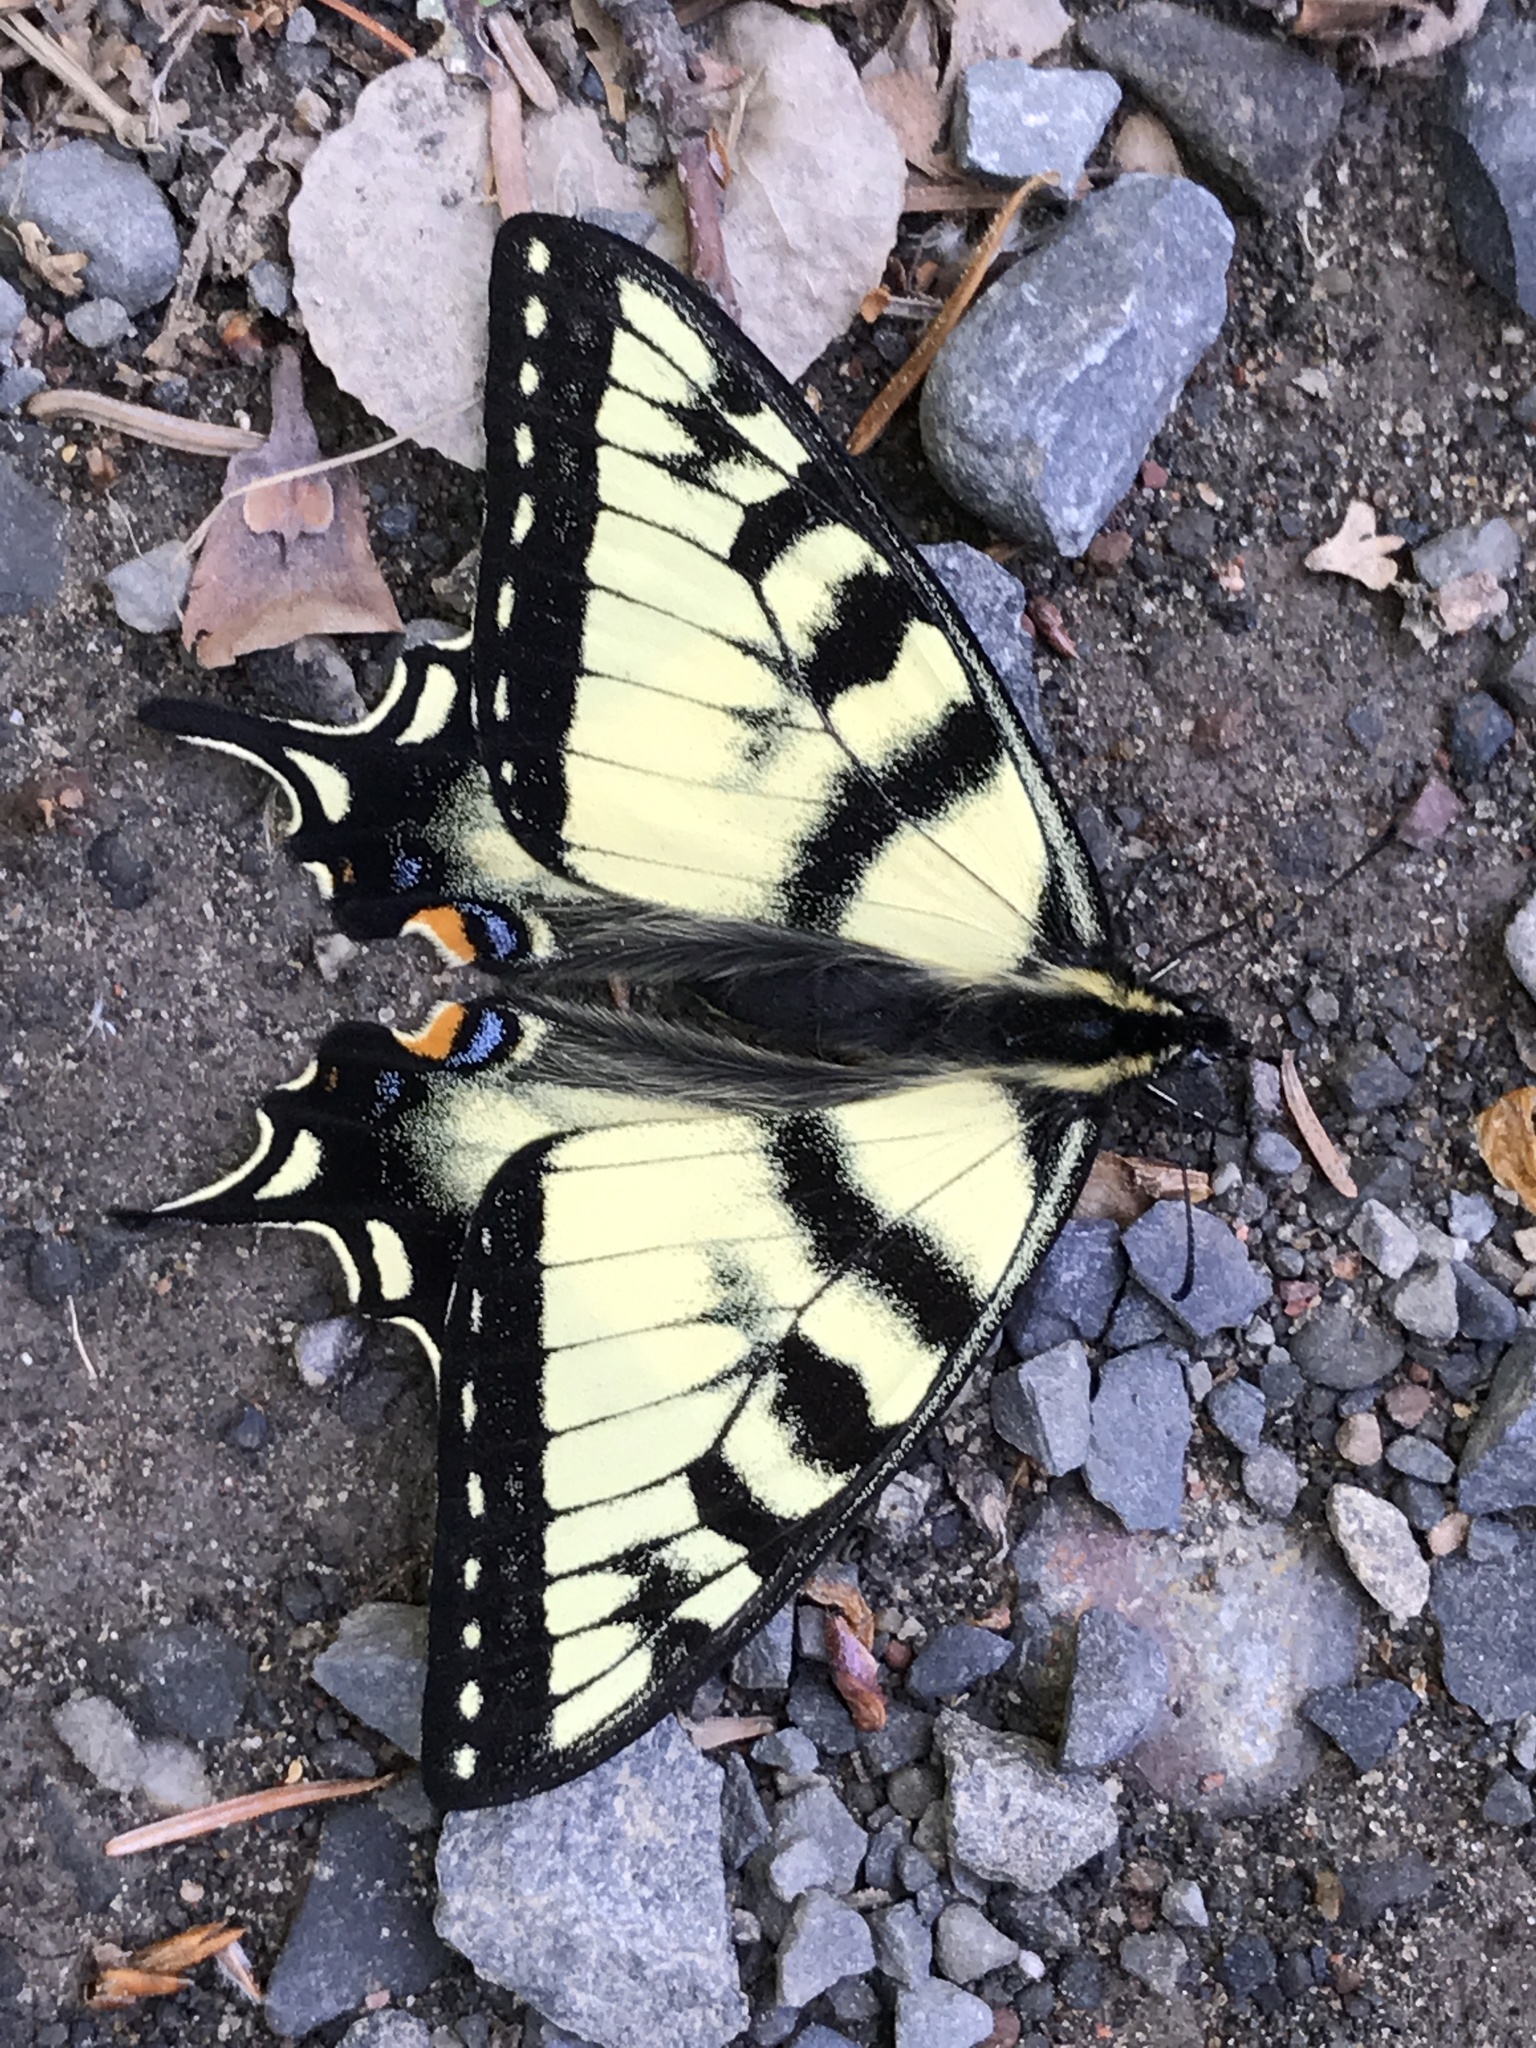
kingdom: Animalia
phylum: Arthropoda
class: Insecta
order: Lepidoptera
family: Papilionidae
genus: Papilio
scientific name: Papilio canadensis
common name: Canadian tiger swallowtail
